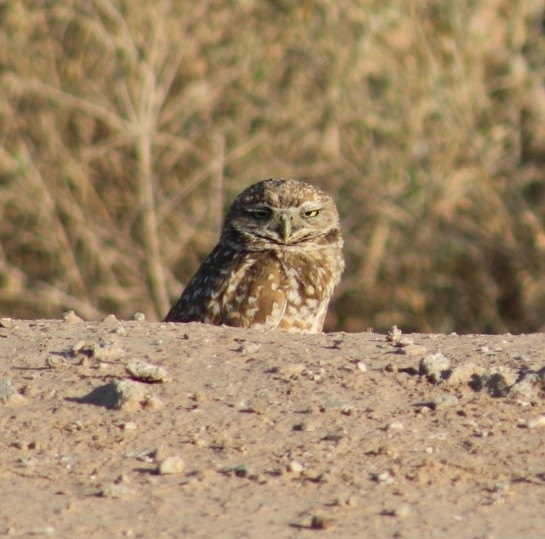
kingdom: Animalia
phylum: Chordata
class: Aves
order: Strigiformes
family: Strigidae
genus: Athene
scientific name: Athene cunicularia
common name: Burrowing owl
